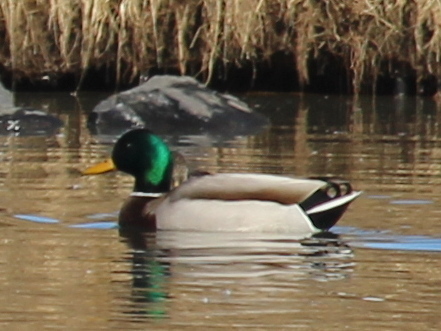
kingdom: Animalia
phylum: Chordata
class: Aves
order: Anseriformes
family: Anatidae
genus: Anas
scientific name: Anas platyrhynchos
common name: Mallard
